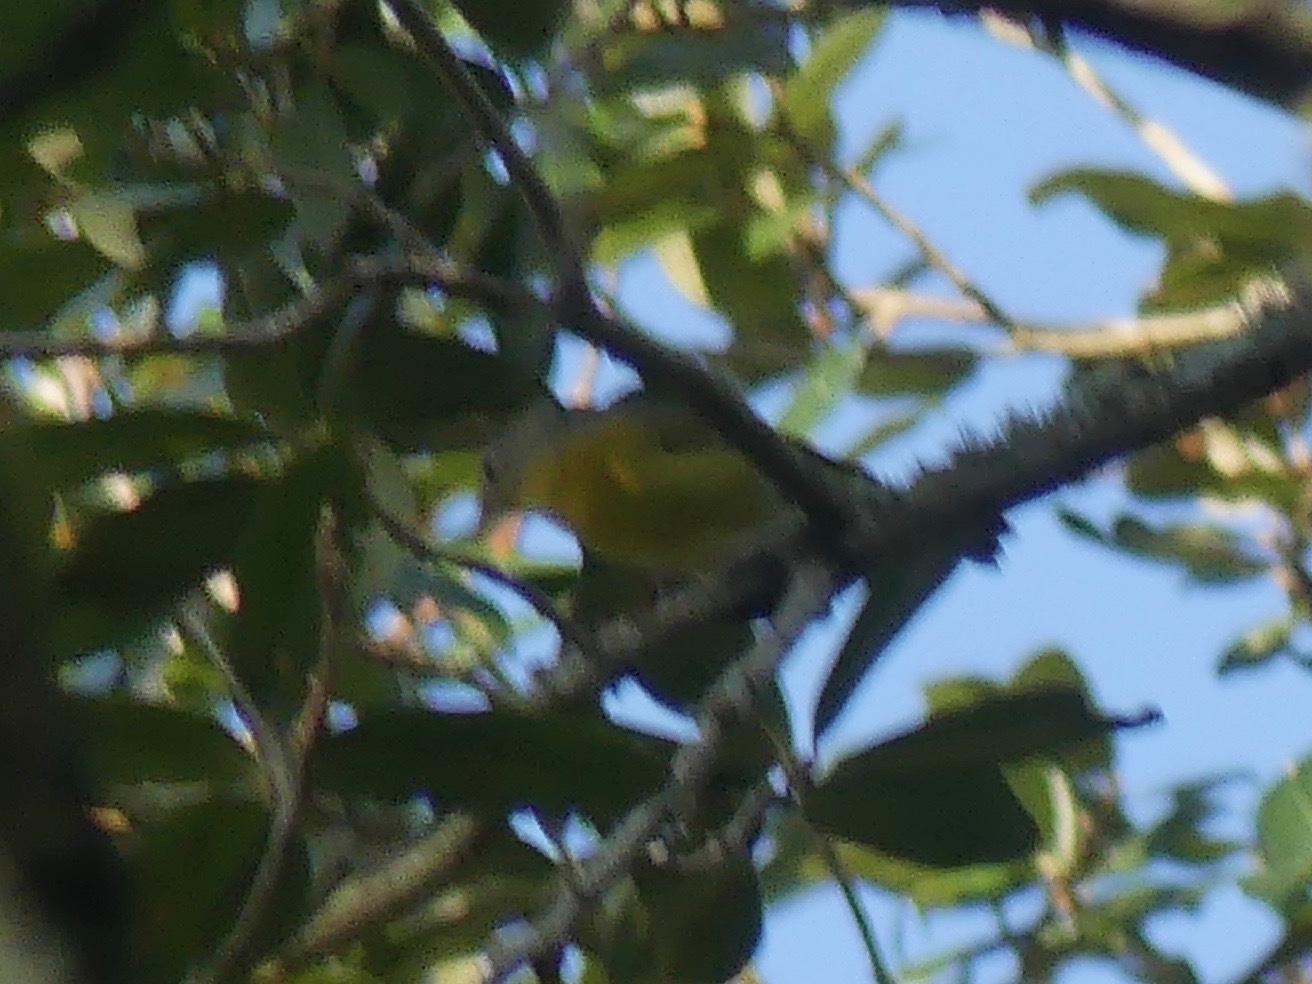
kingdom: Animalia
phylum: Chordata
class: Aves
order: Passeriformes
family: Parulidae
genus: Leiothlypis
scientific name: Leiothlypis ruficapilla
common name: Nashville warbler
